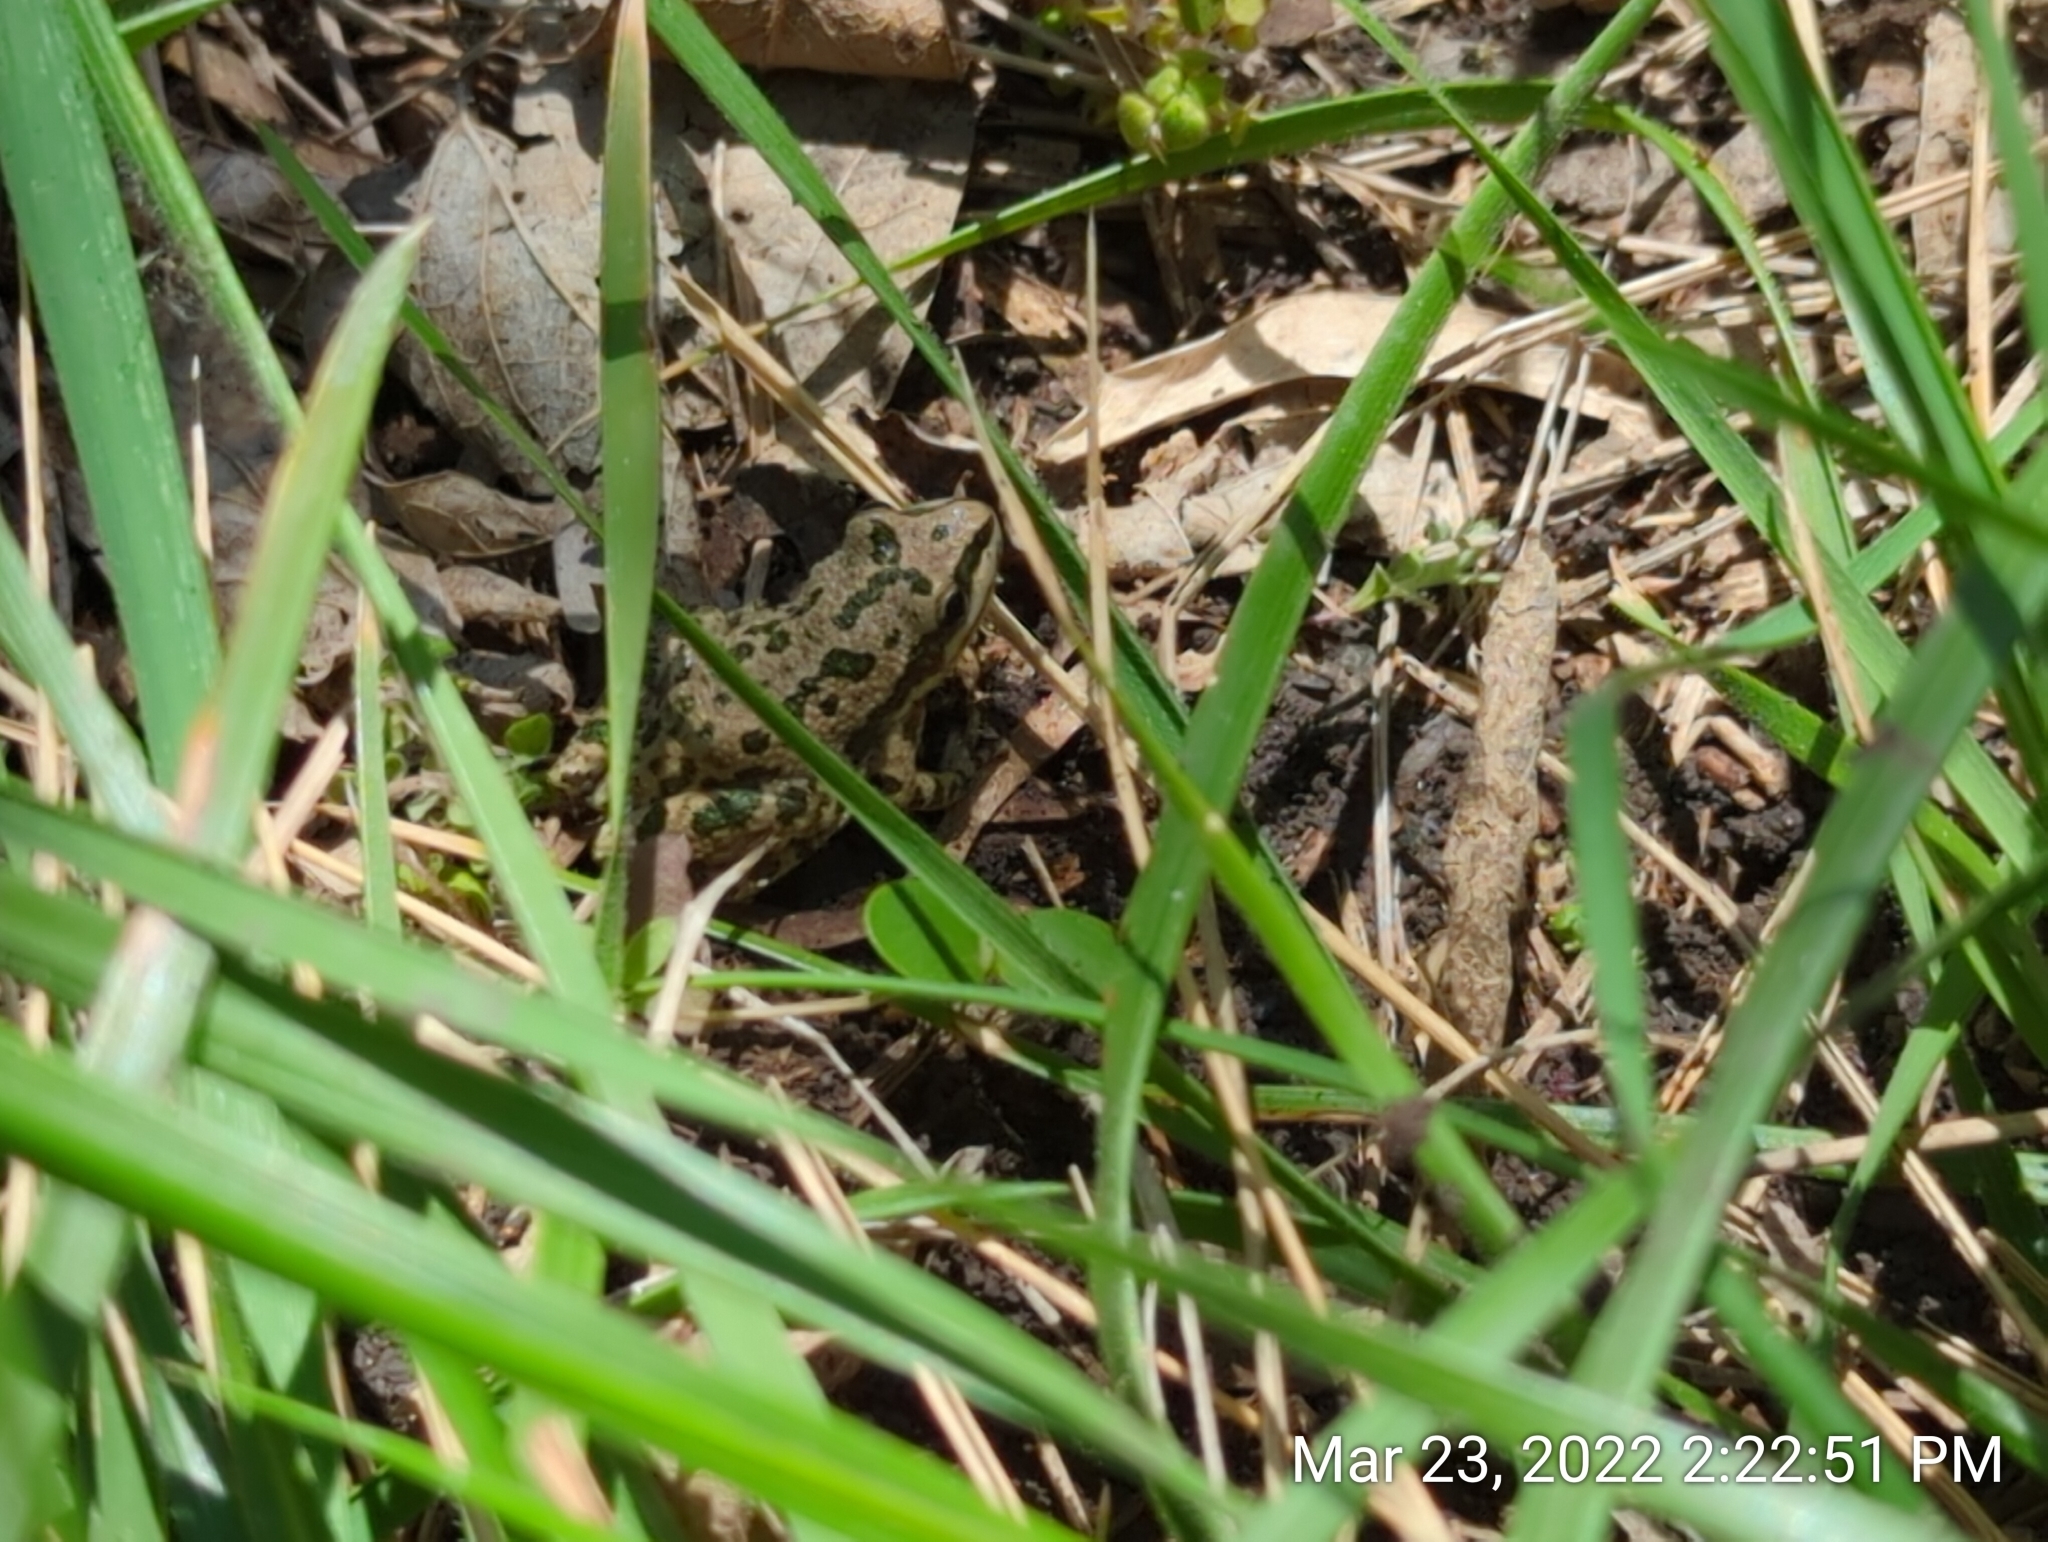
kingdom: Animalia
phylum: Chordata
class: Amphibia
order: Anura
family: Hylidae
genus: Pseudacris
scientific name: Pseudacris clarkii
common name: Spotted chorus frog
